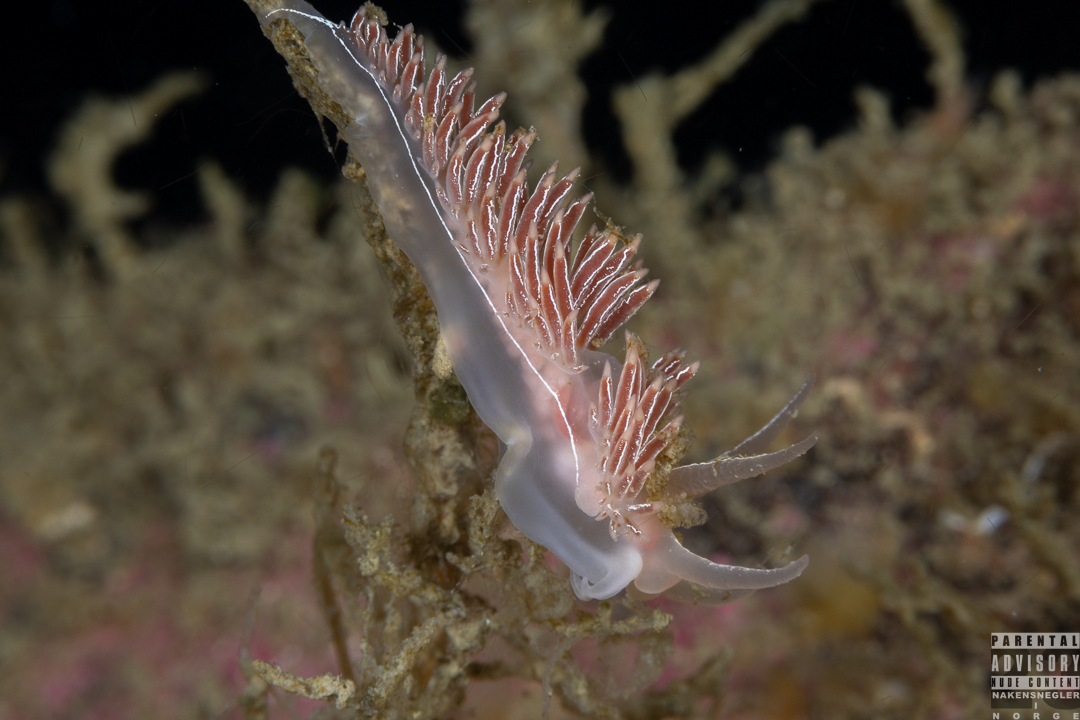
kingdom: Animalia
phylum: Mollusca
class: Gastropoda
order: Nudibranchia
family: Coryphellidae
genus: Coryphella
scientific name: Coryphella chriskaugei
